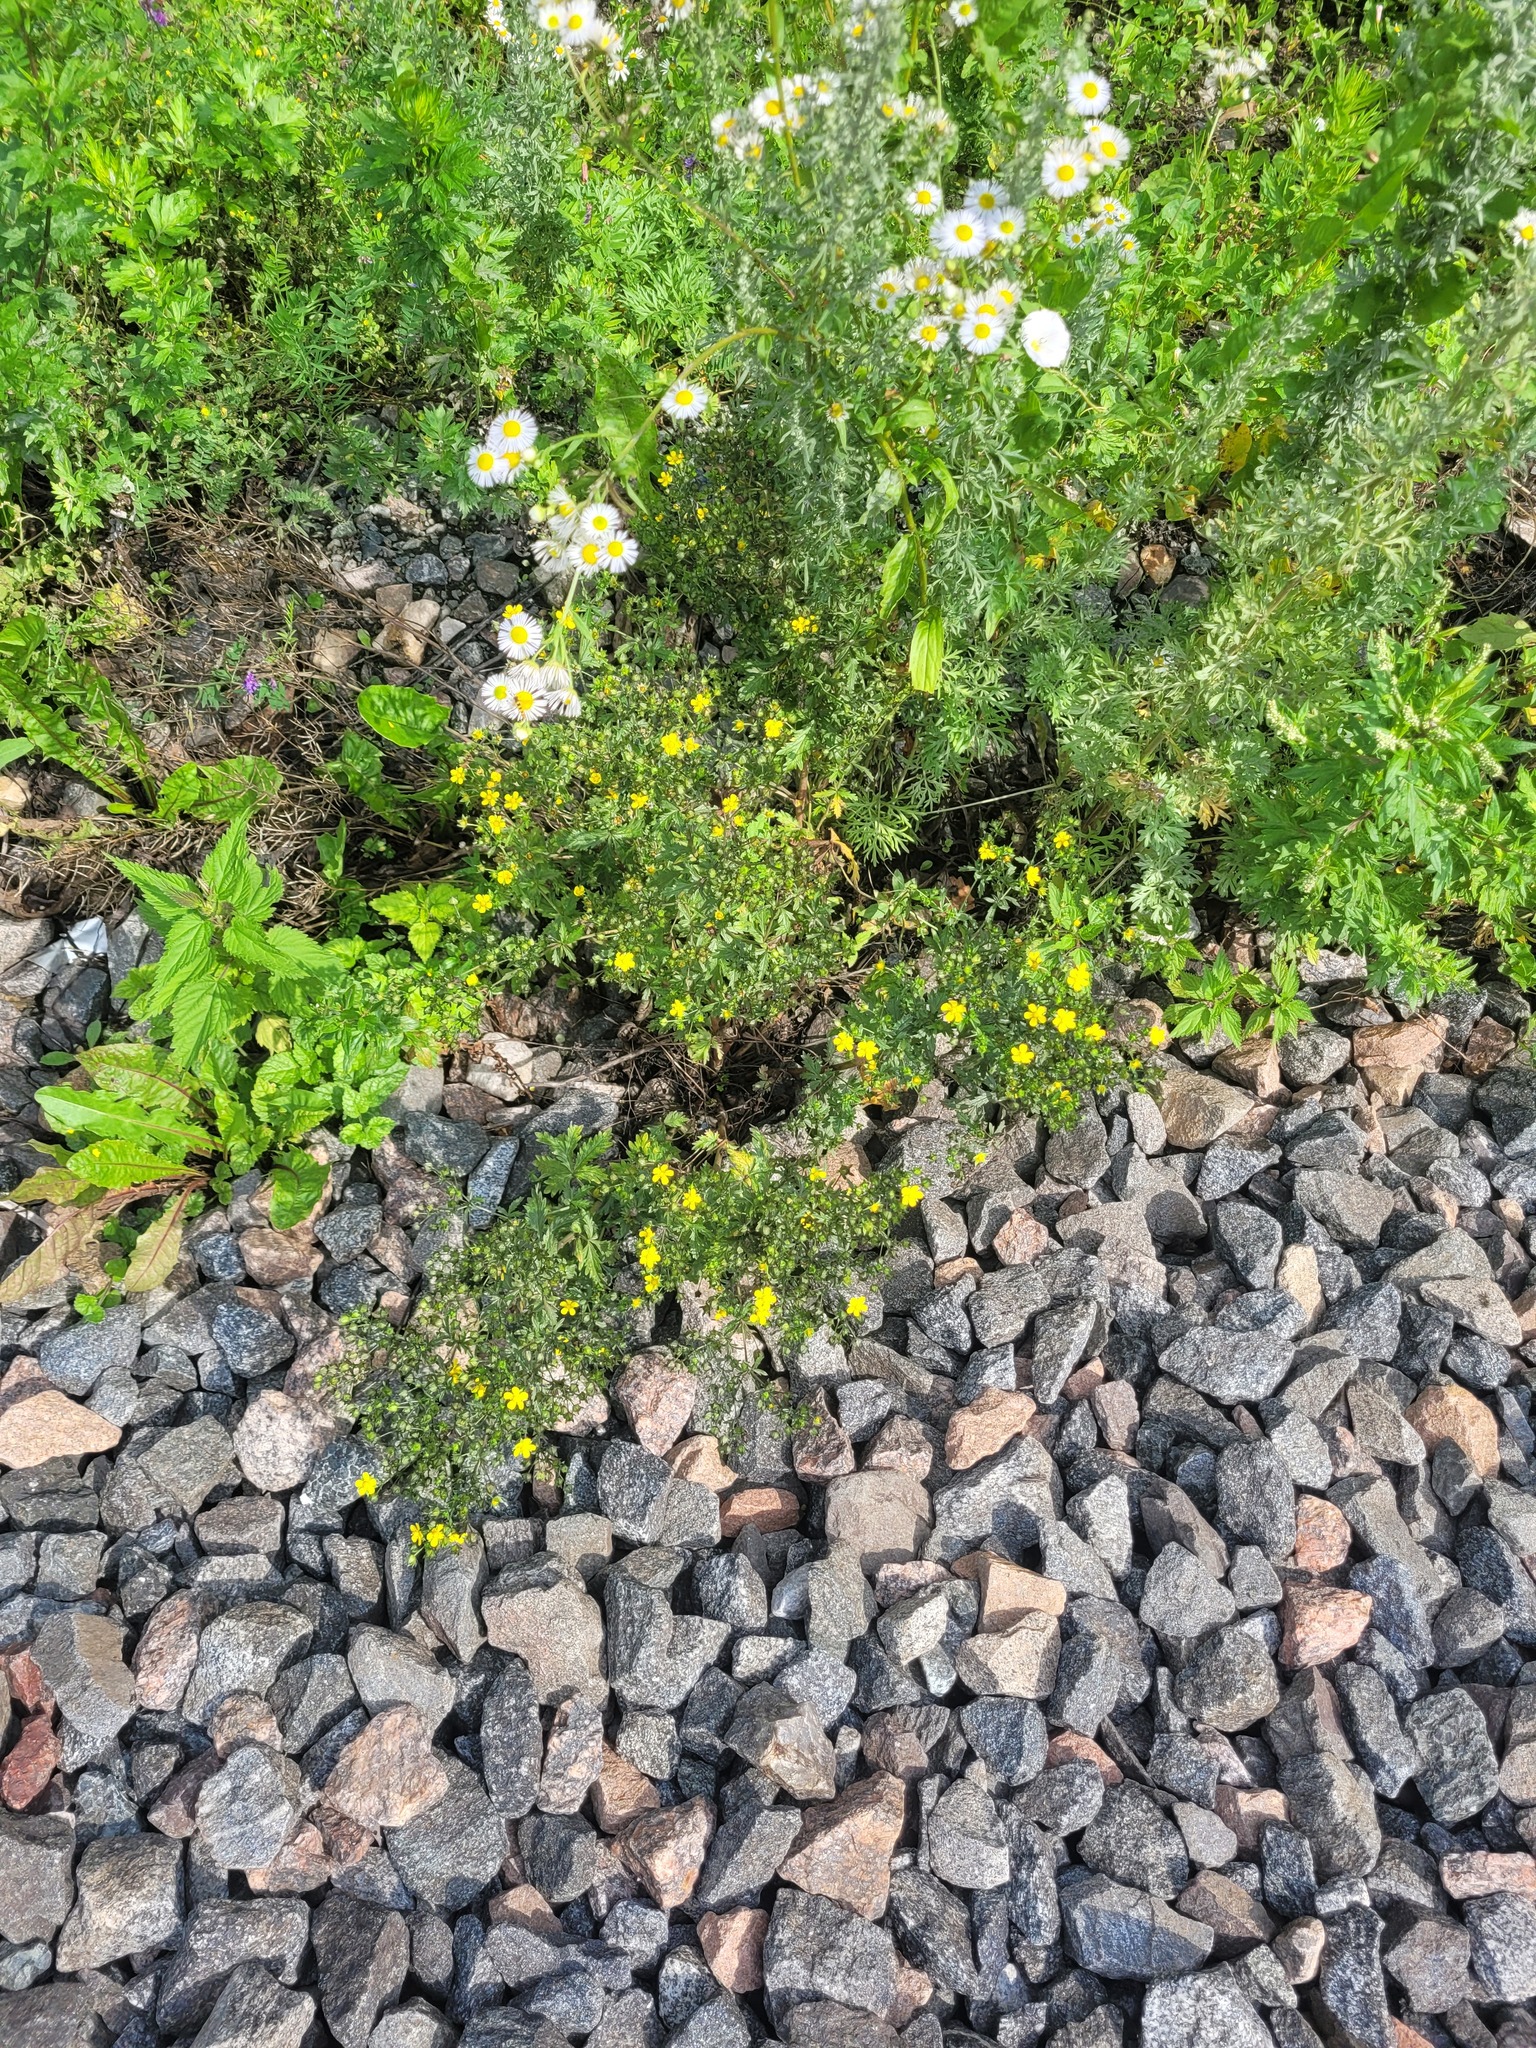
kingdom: Plantae
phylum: Tracheophyta
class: Magnoliopsida
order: Rosales
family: Rosaceae
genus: Potentilla
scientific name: Potentilla intermedia
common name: Downy cinquefoil
